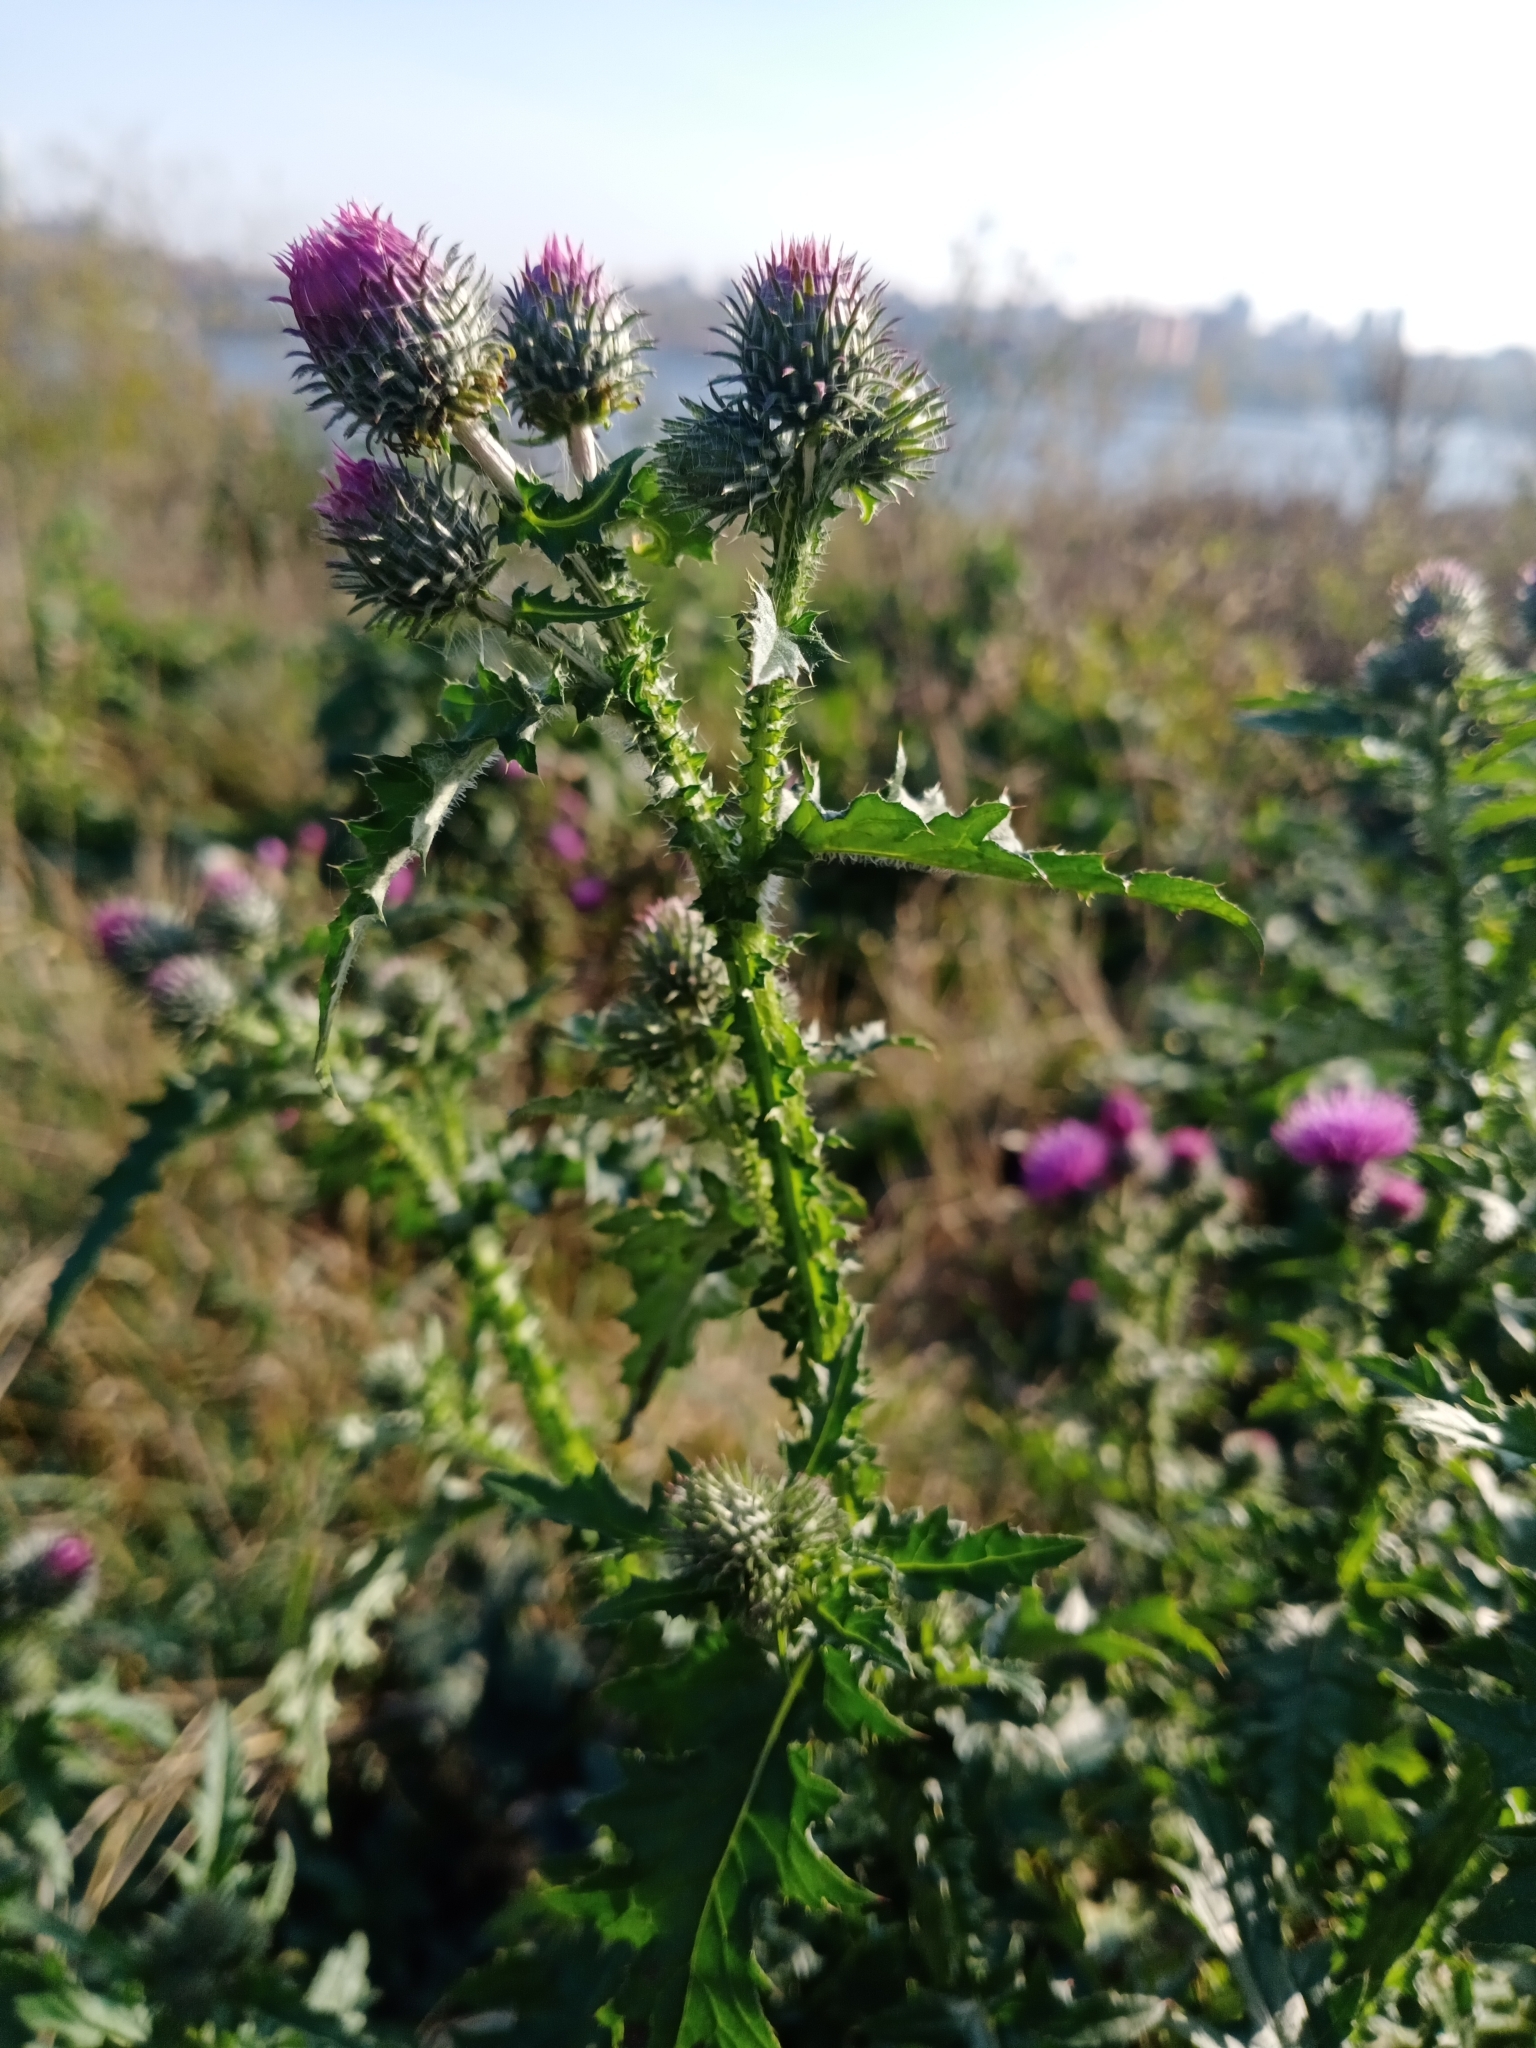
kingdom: Plantae
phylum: Tracheophyta
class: Magnoliopsida
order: Asterales
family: Asteraceae
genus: Carduus
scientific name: Carduus crispus
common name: Welted thistle
